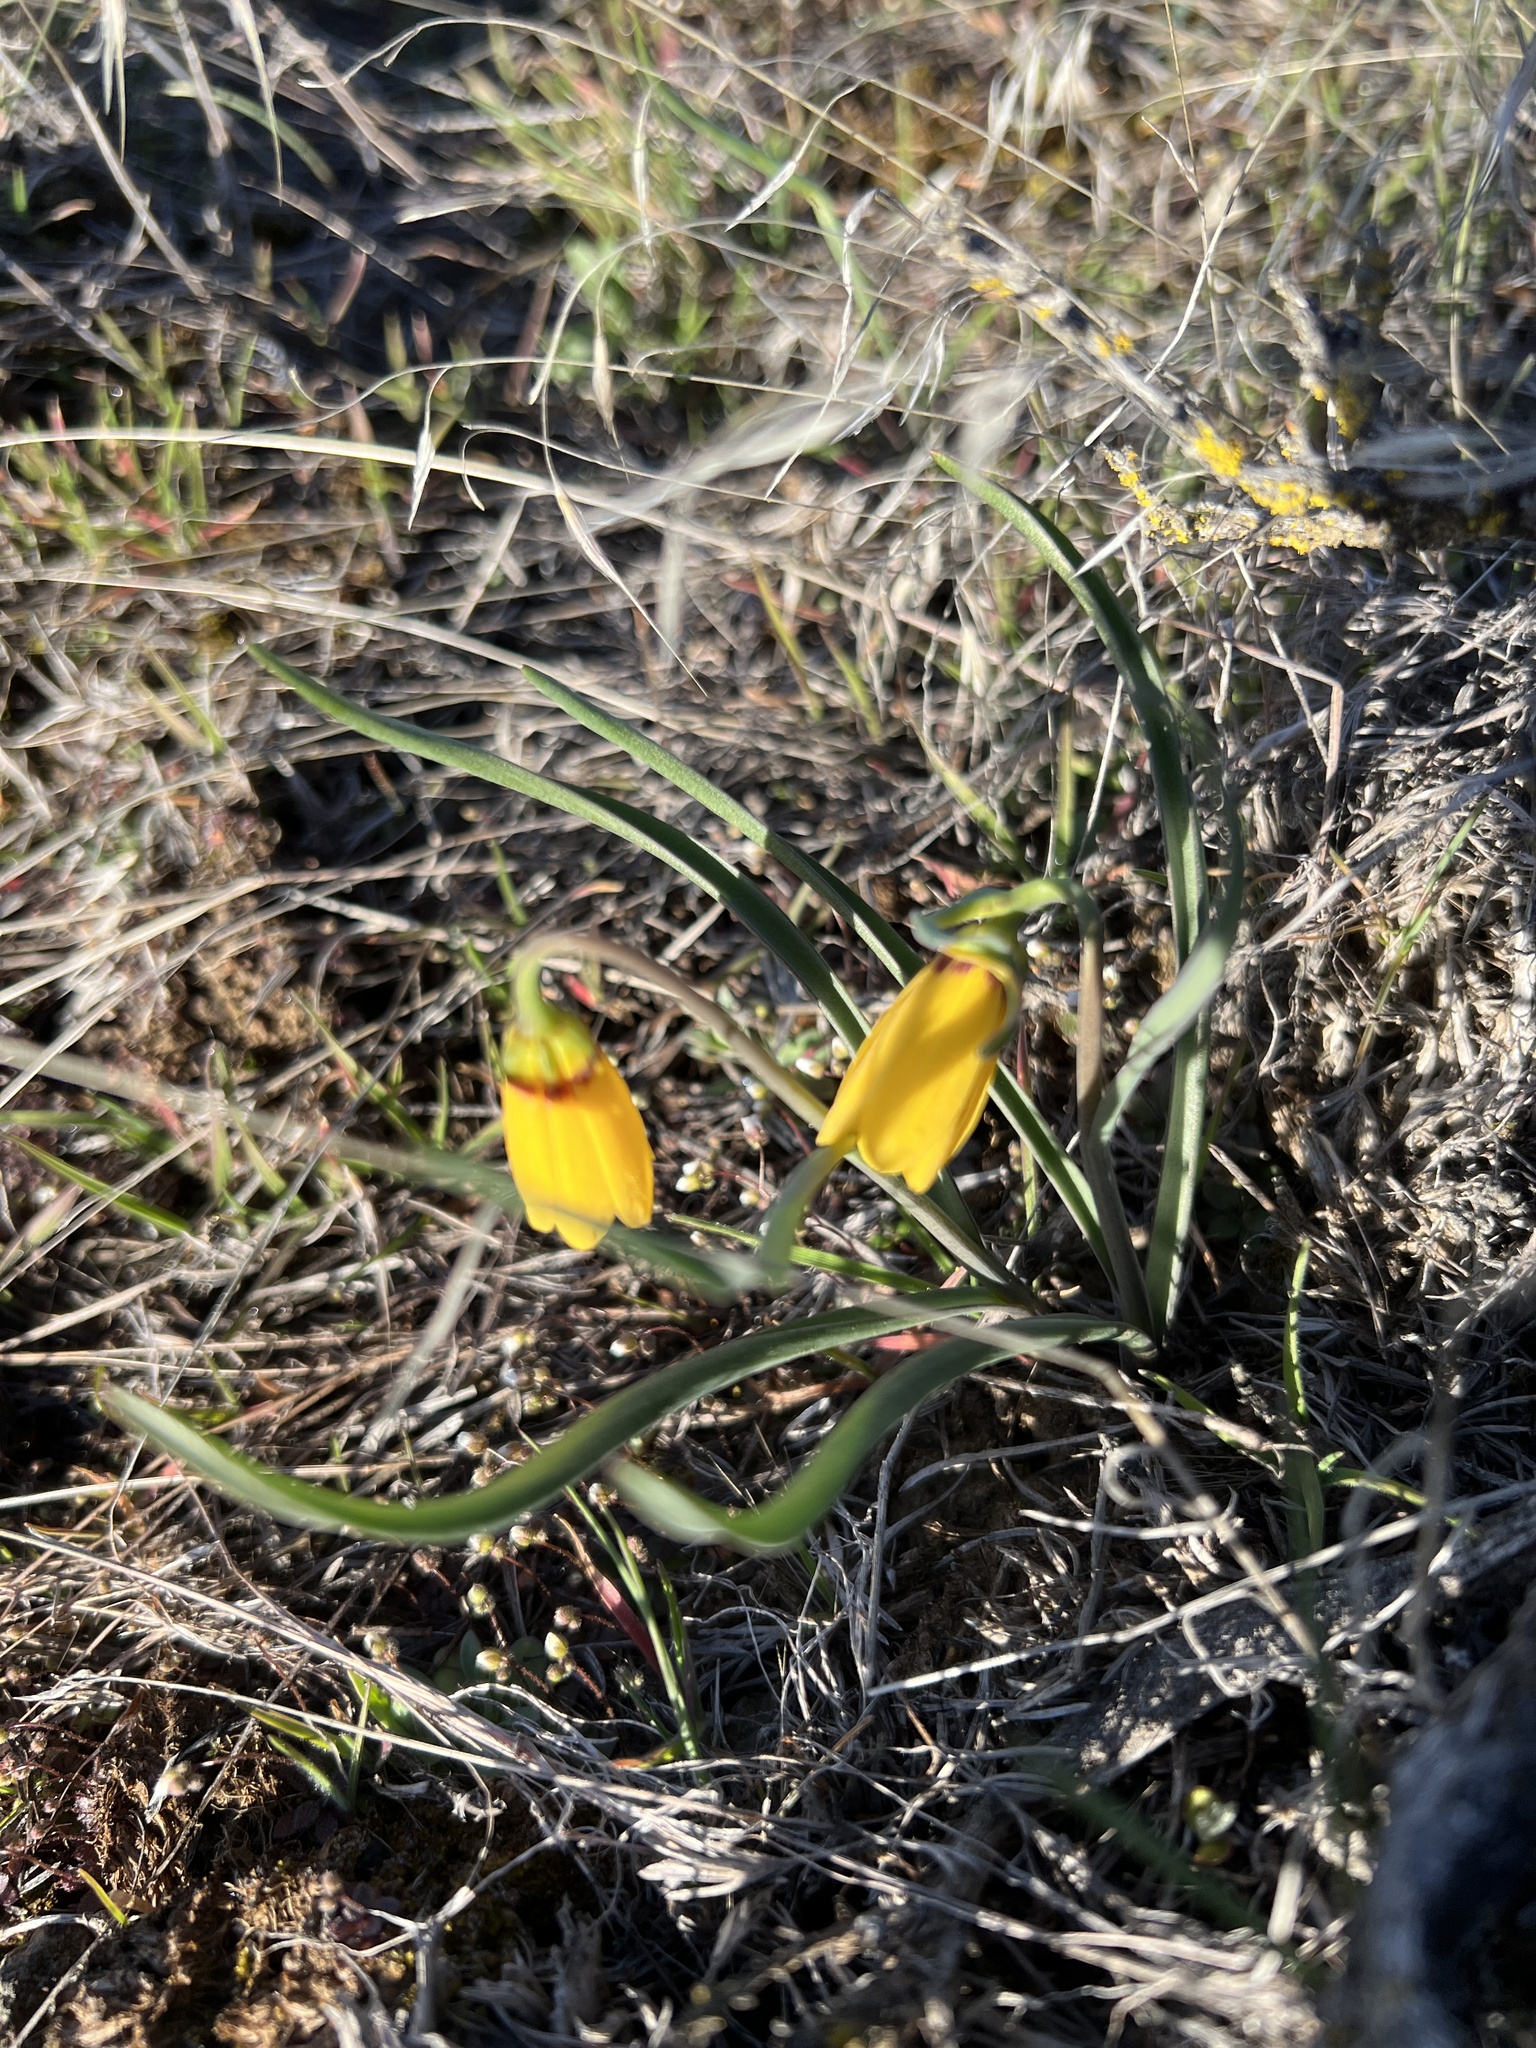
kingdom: Plantae
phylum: Tracheophyta
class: Liliopsida
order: Liliales
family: Liliaceae
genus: Fritillaria
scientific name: Fritillaria pudica
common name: Yellow fritillary
